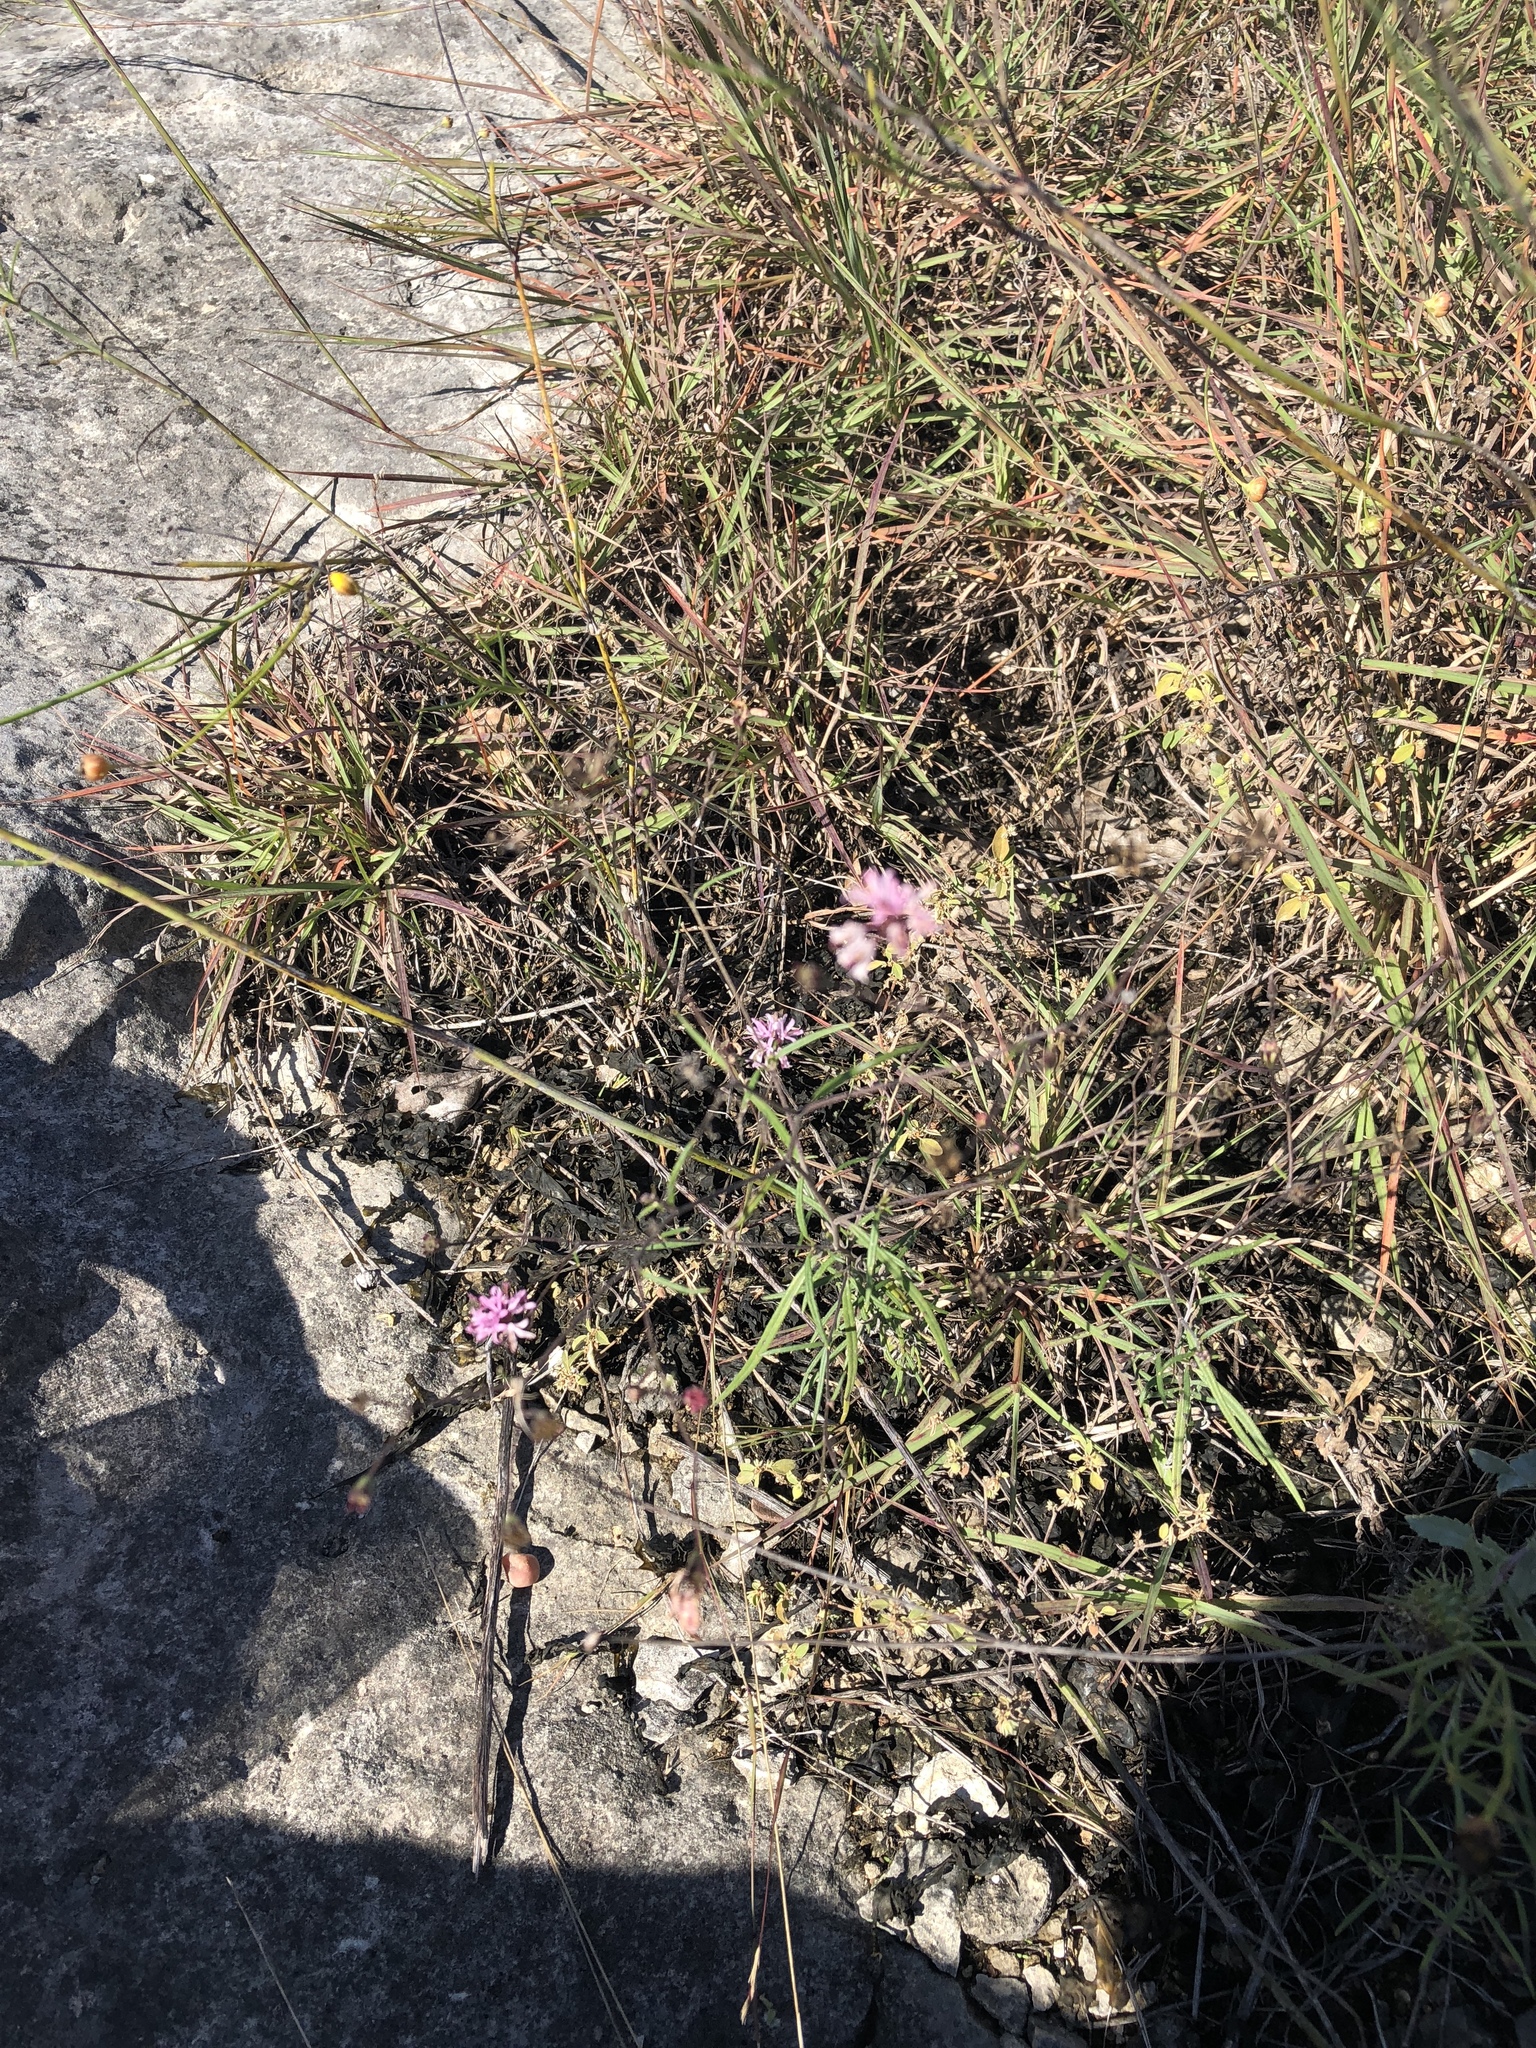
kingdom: Plantae
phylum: Tracheophyta
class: Magnoliopsida
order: Asterales
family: Asteraceae
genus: Palafoxia
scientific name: Palafoxia callosa
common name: Small palafox
